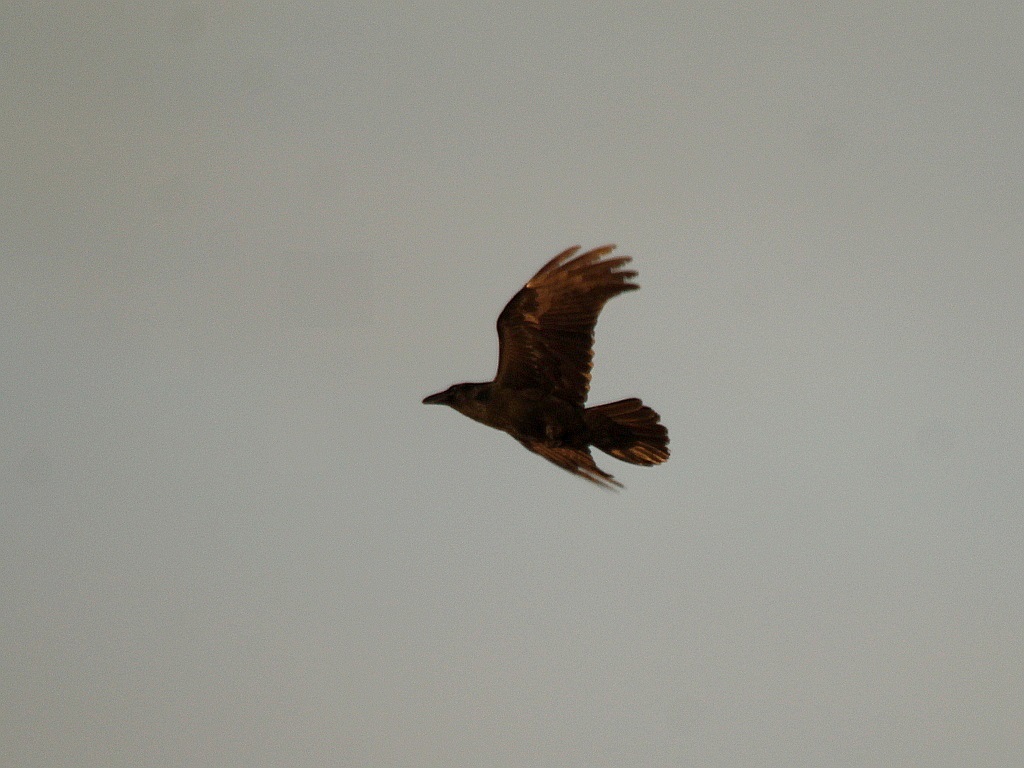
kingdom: Animalia
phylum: Chordata
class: Aves
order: Passeriformes
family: Corvidae
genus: Corvus
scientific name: Corvus corax
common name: Common raven
